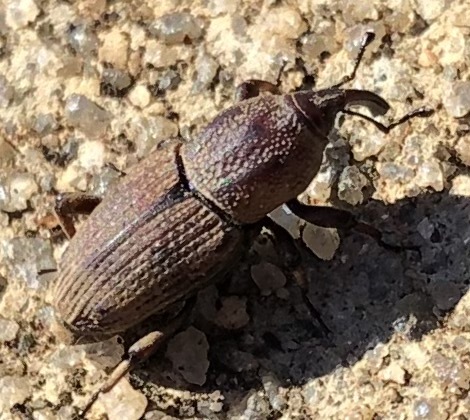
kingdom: Animalia
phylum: Arthropoda
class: Insecta
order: Coleoptera
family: Dryophthoridae
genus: Sphenophorus
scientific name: Sphenophorus venatus
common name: Hunting billbug
